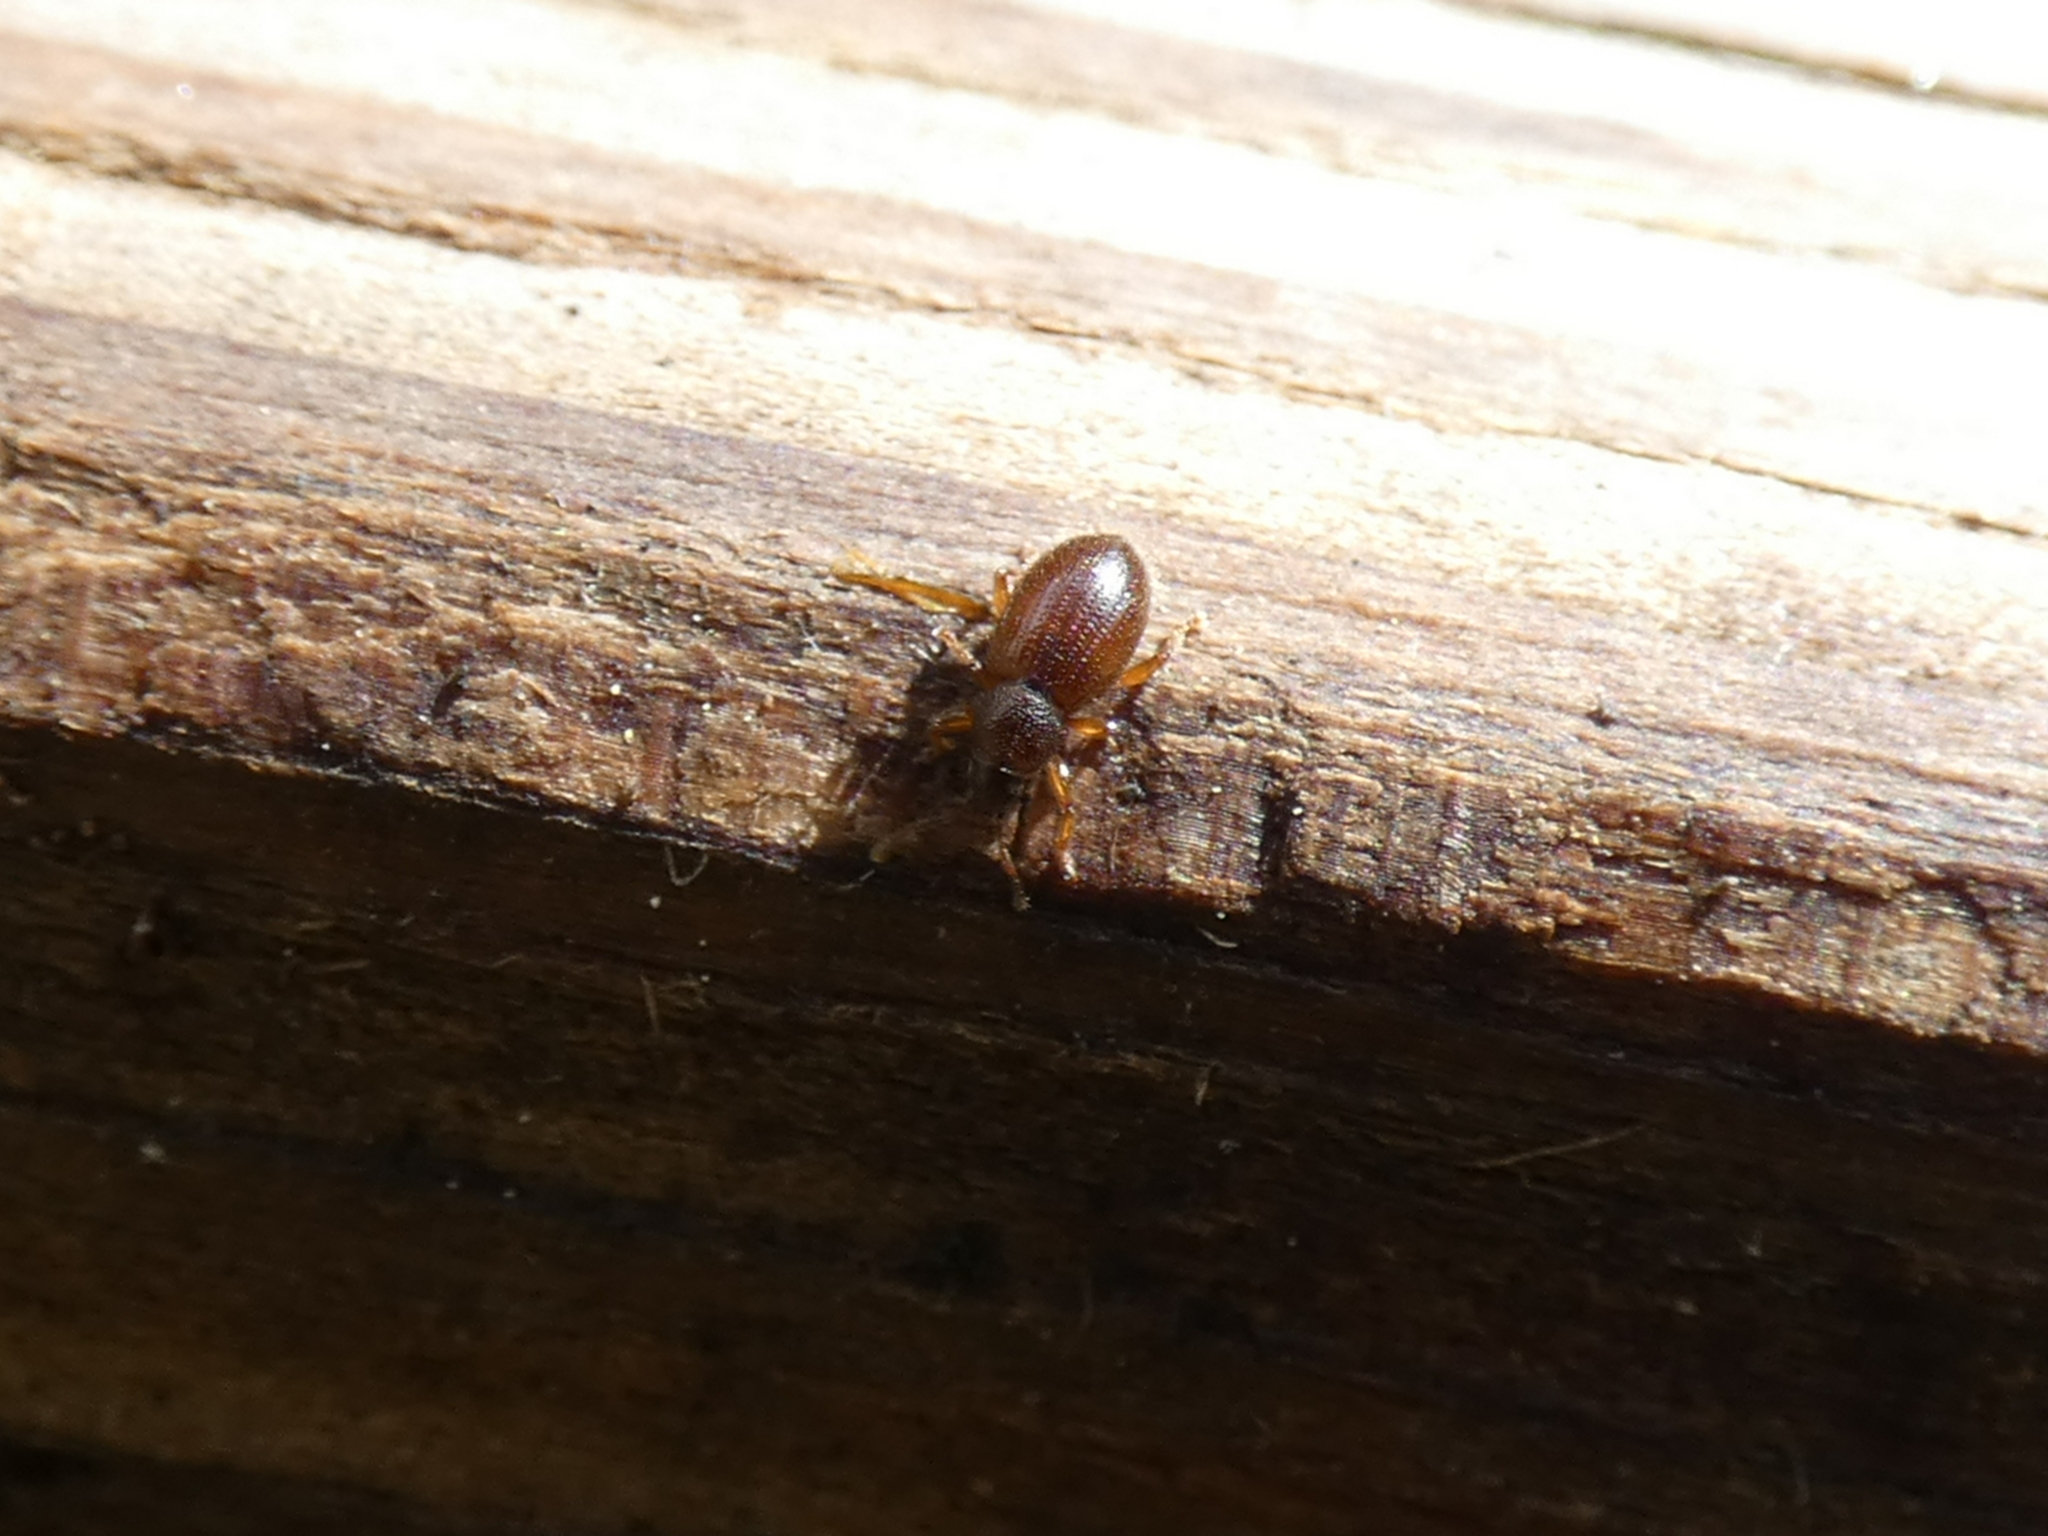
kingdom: Animalia
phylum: Arthropoda
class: Insecta
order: Coleoptera
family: Curculionidae
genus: Exomias
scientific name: Exomias pellucidus
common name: Hairy spider weevil
